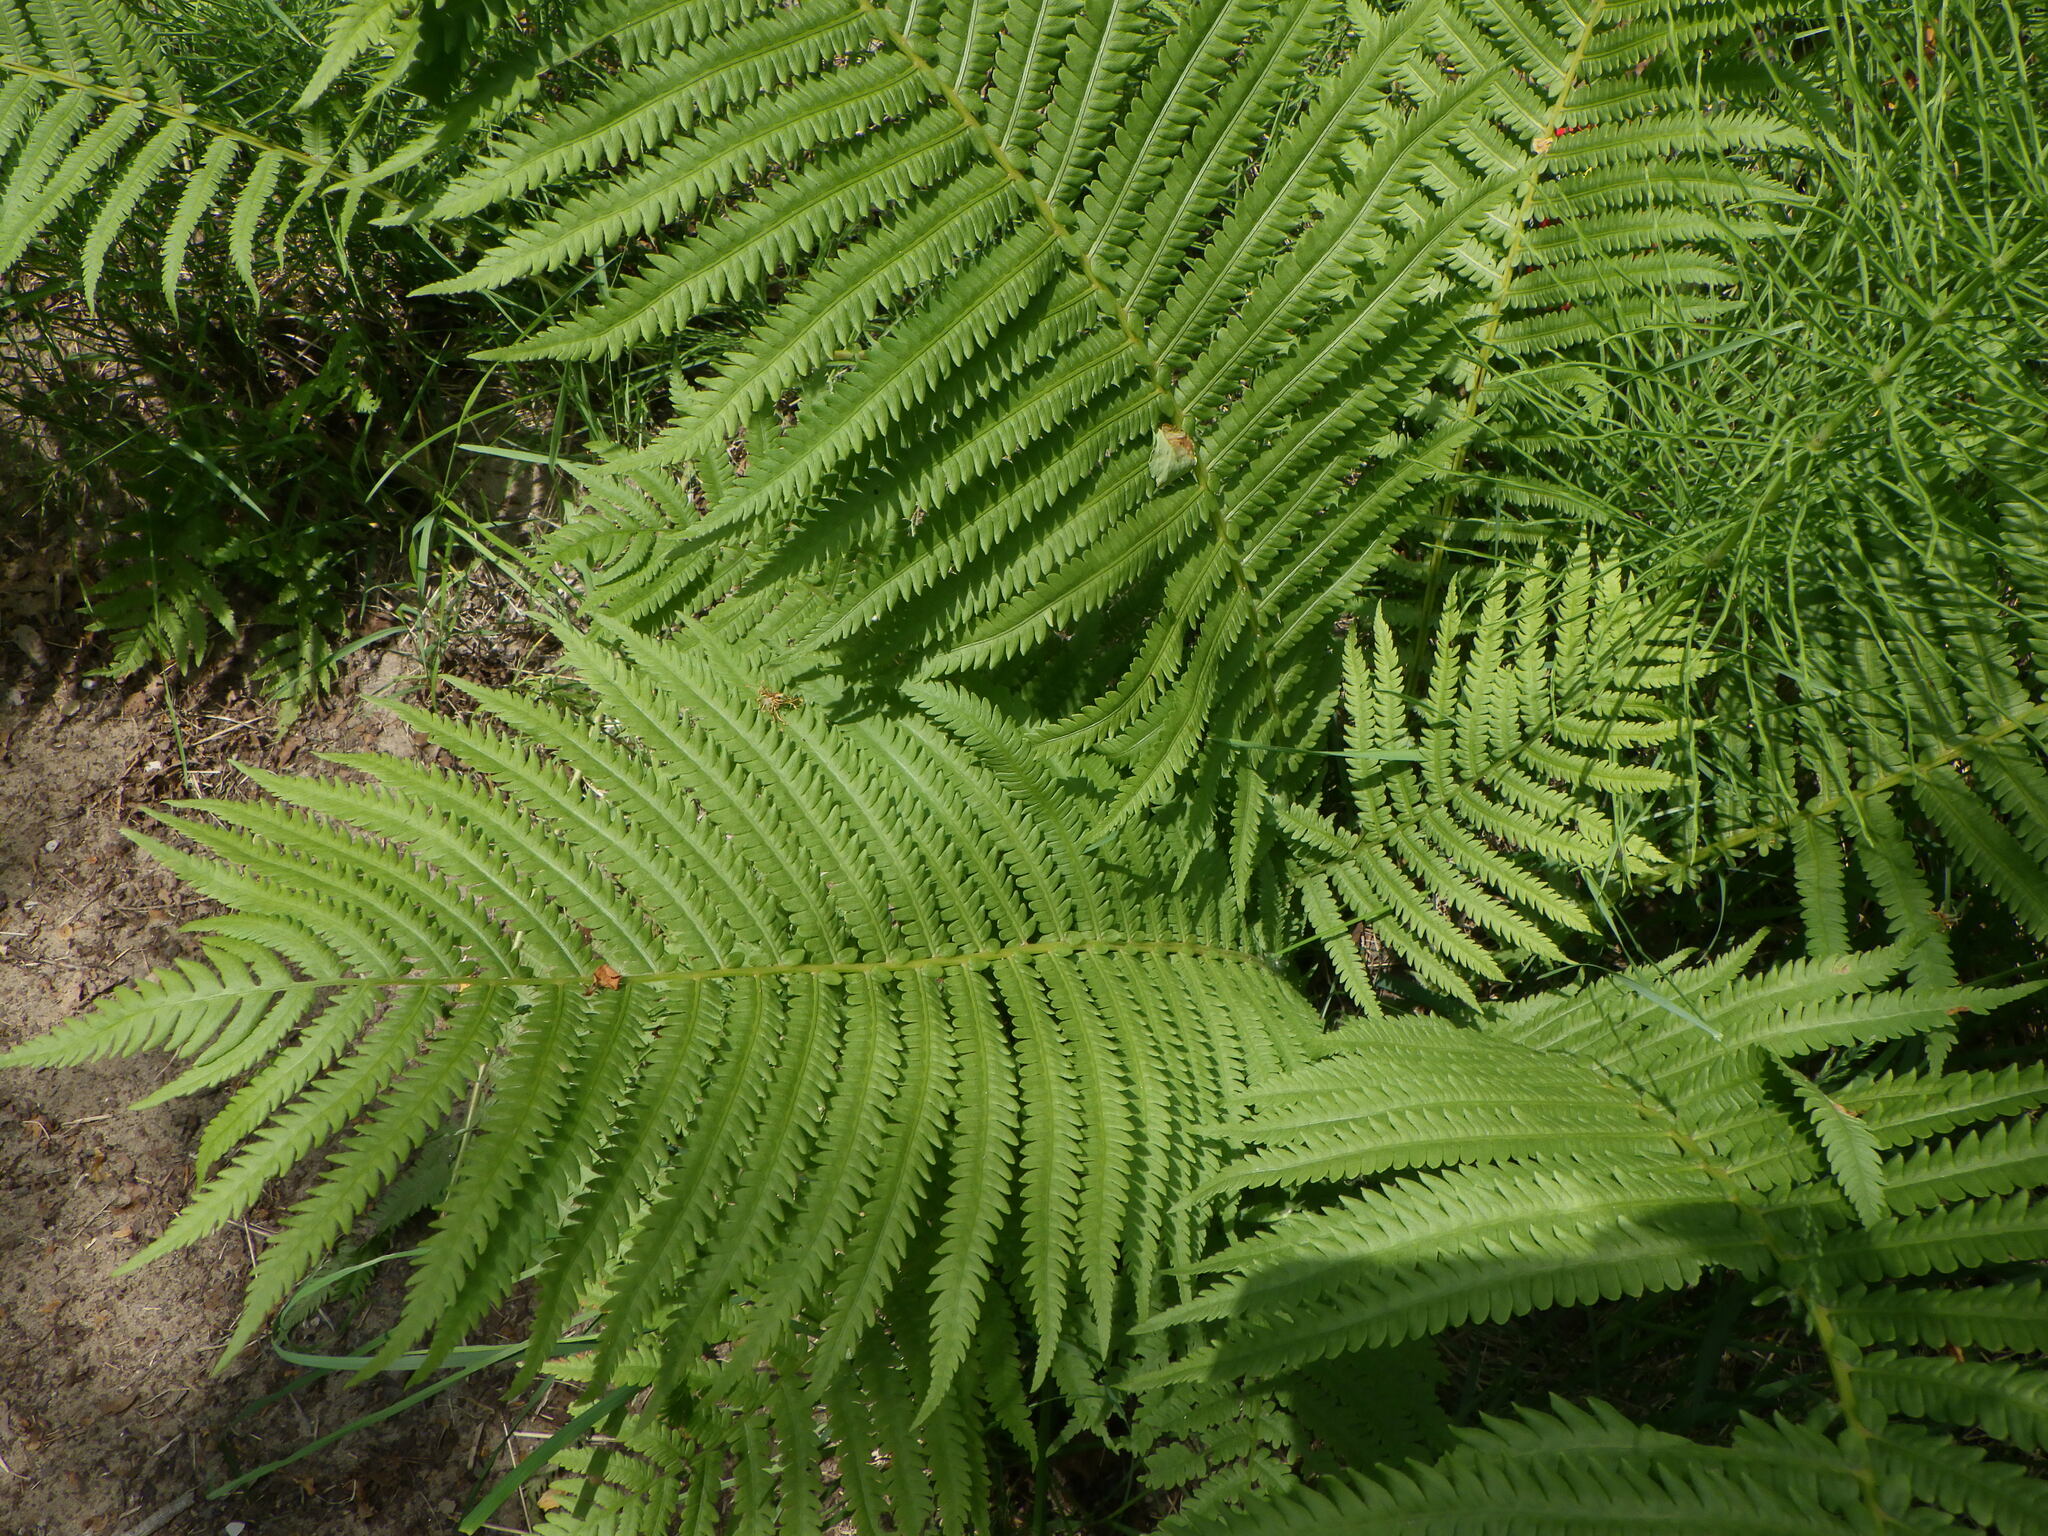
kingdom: Plantae
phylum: Tracheophyta
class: Polypodiopsida
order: Polypodiales
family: Onocleaceae
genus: Matteuccia
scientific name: Matteuccia struthiopteris
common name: Ostrich fern
